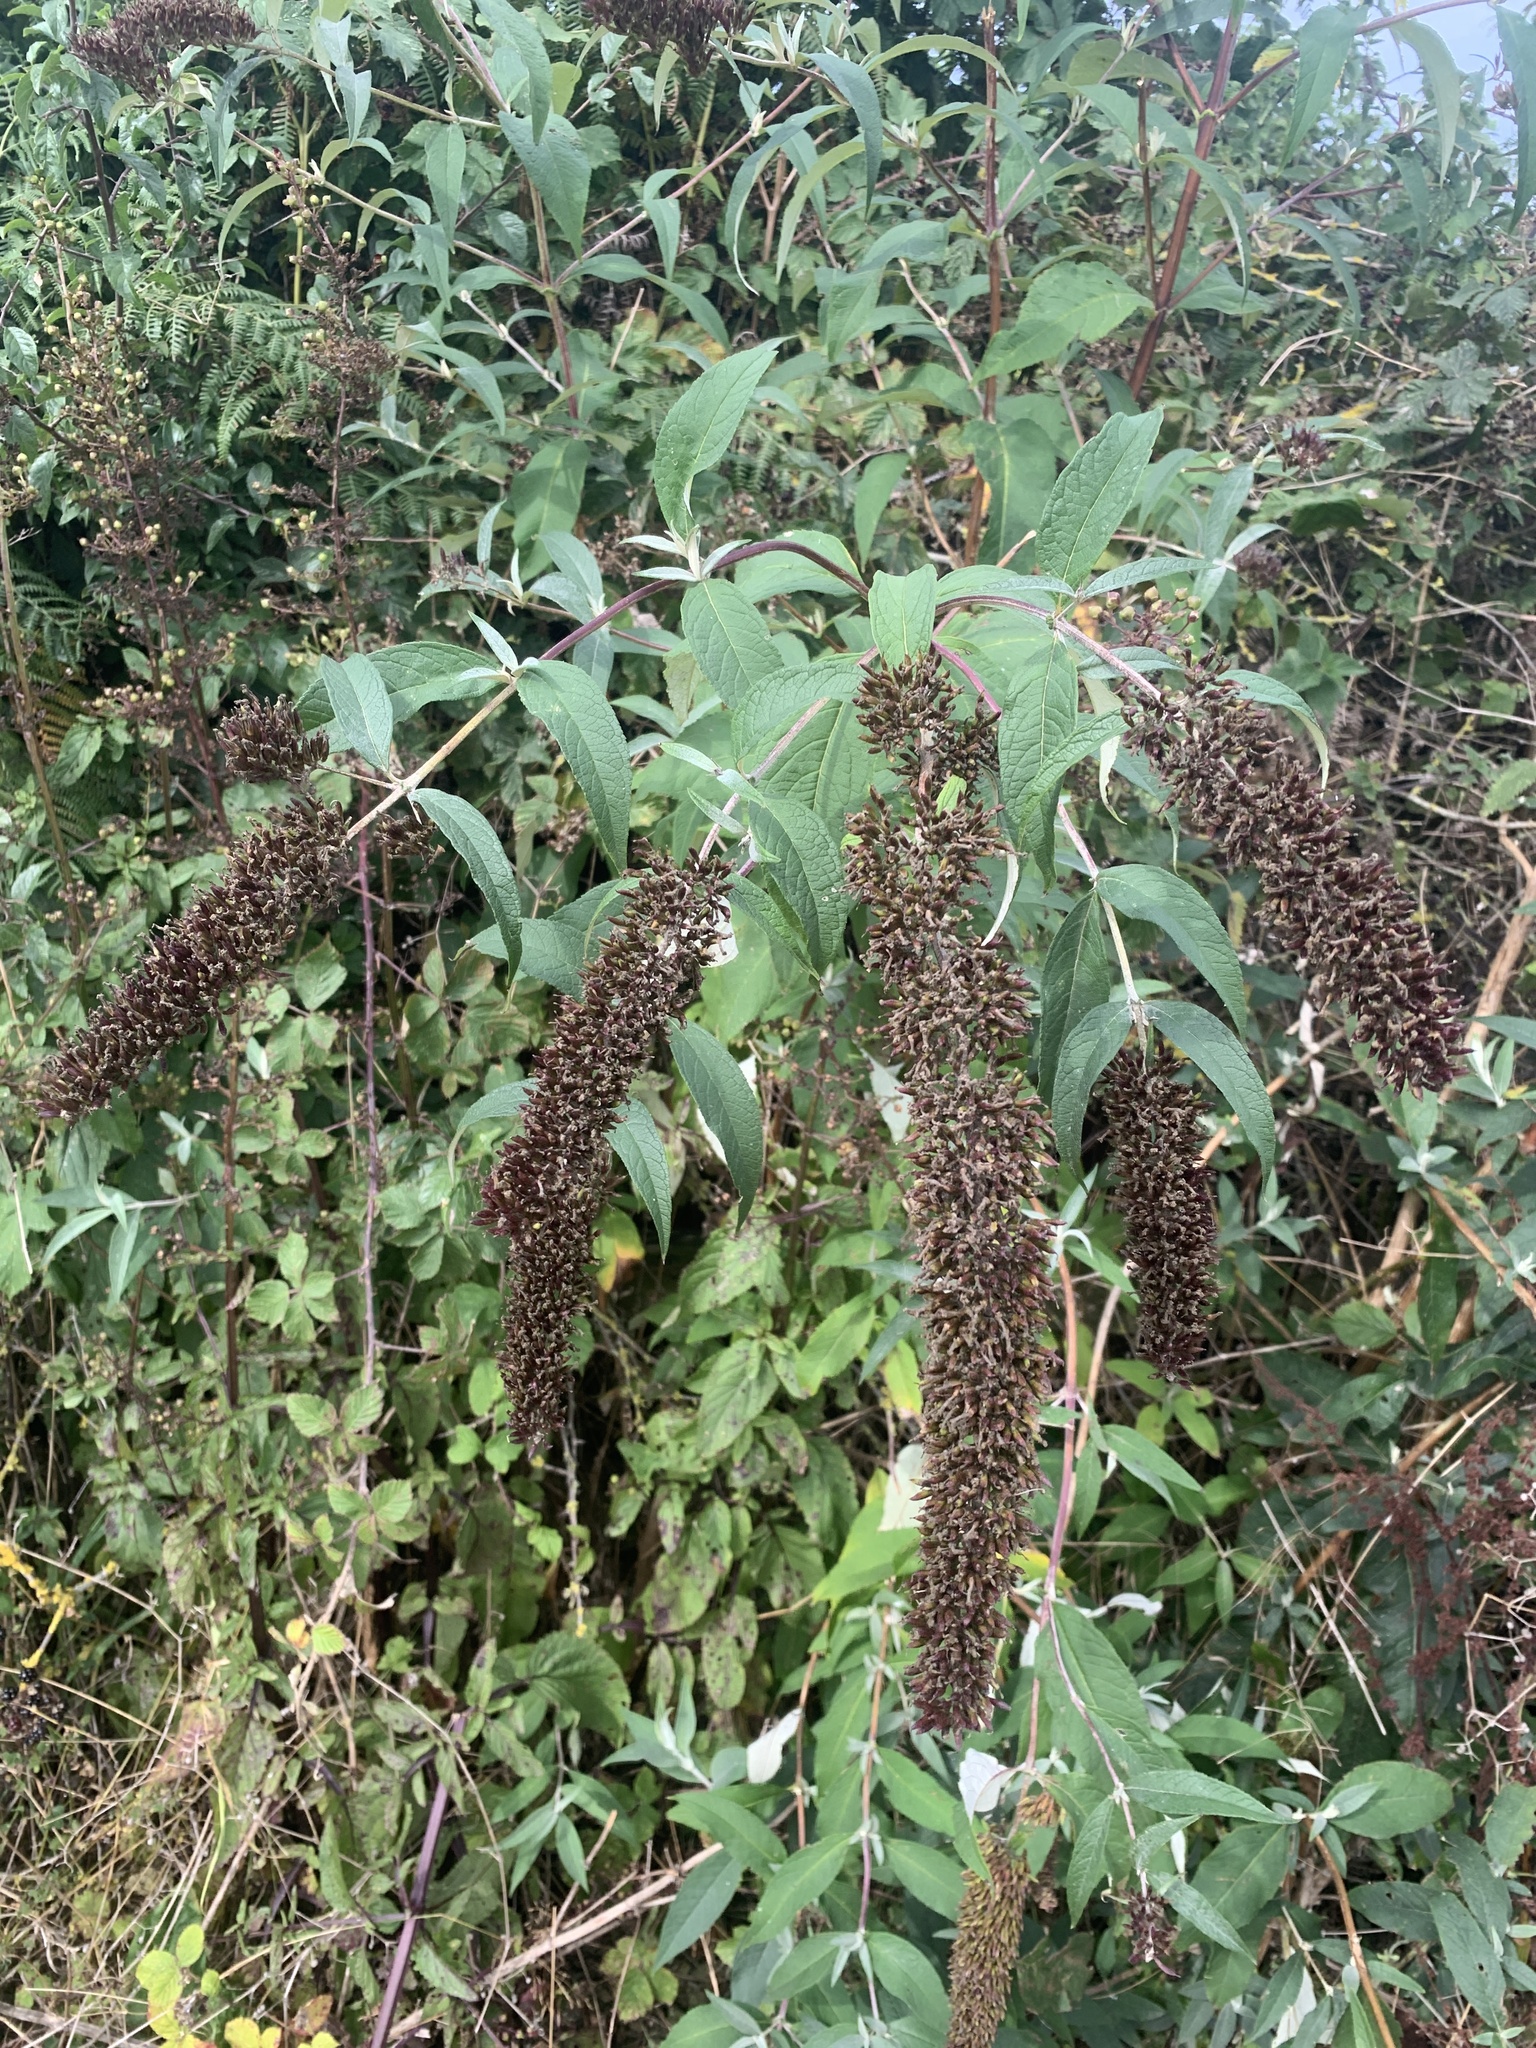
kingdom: Plantae
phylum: Tracheophyta
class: Magnoliopsida
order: Lamiales
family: Scrophulariaceae
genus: Buddleja
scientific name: Buddleja davidii
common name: Butterfly-bush
